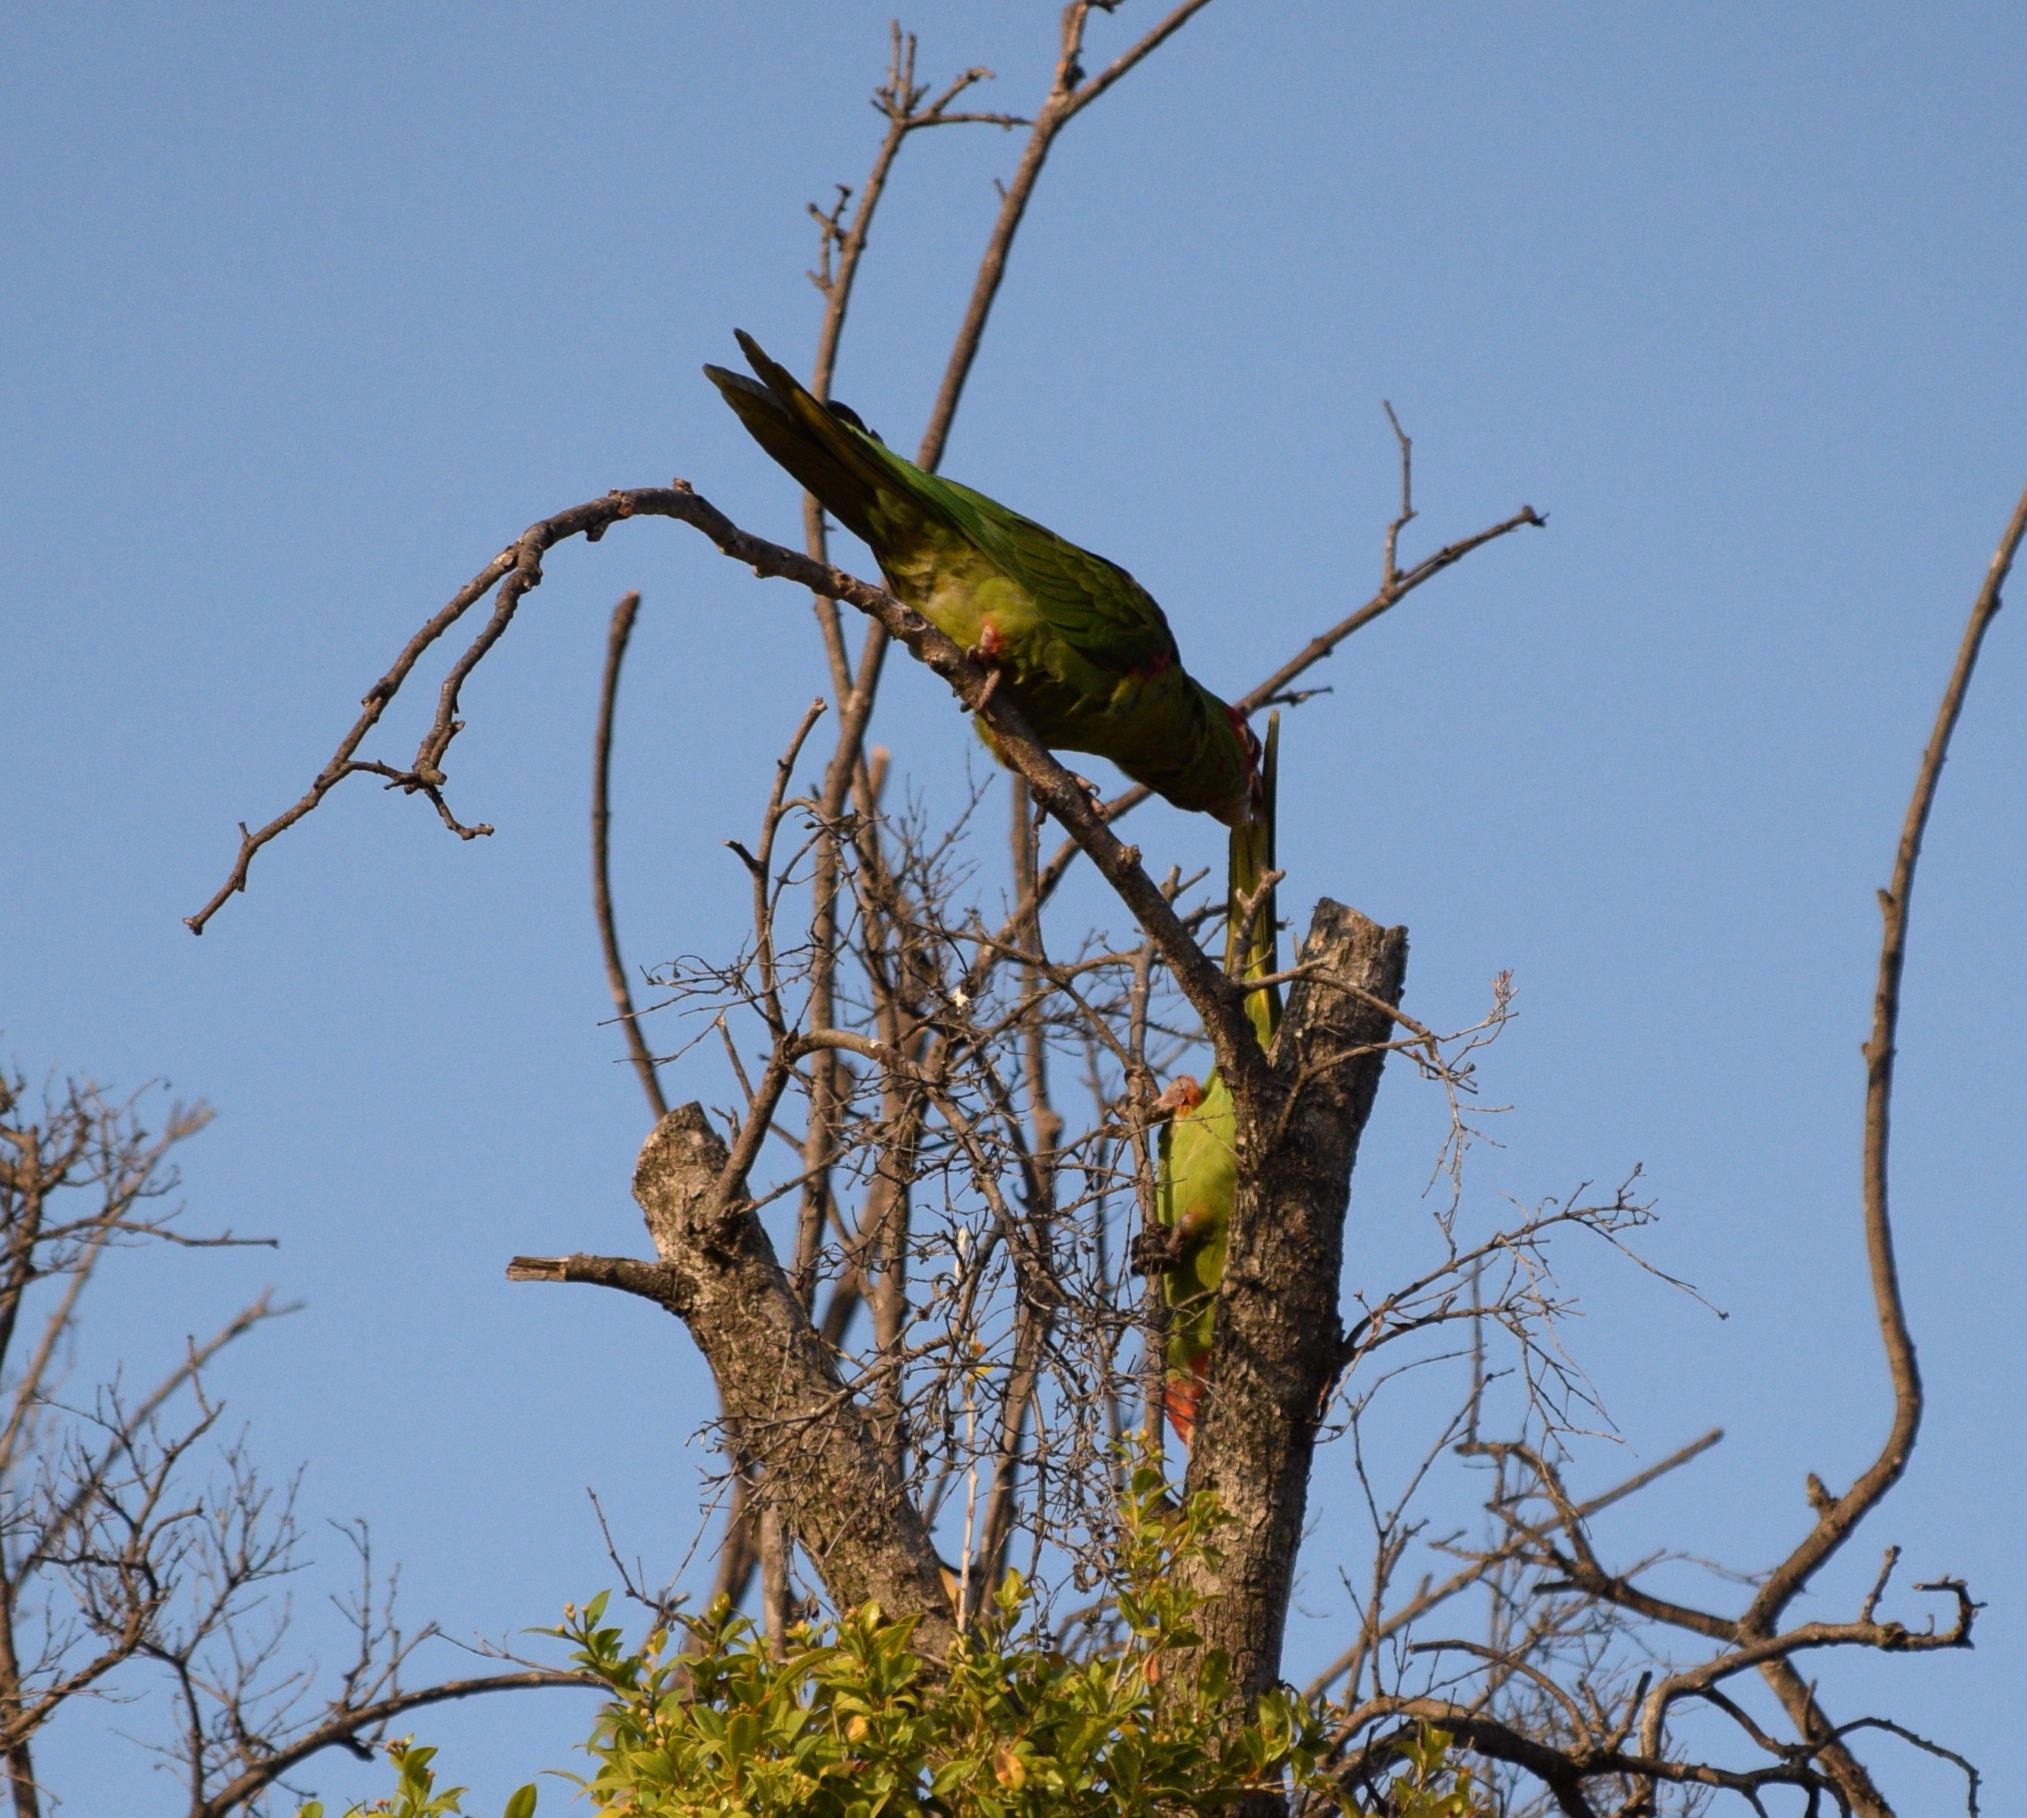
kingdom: Animalia
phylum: Chordata
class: Aves
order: Psittaciformes
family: Psittacidae
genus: Aratinga
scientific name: Aratinga erythrogenys
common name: Red-masked parakeet
